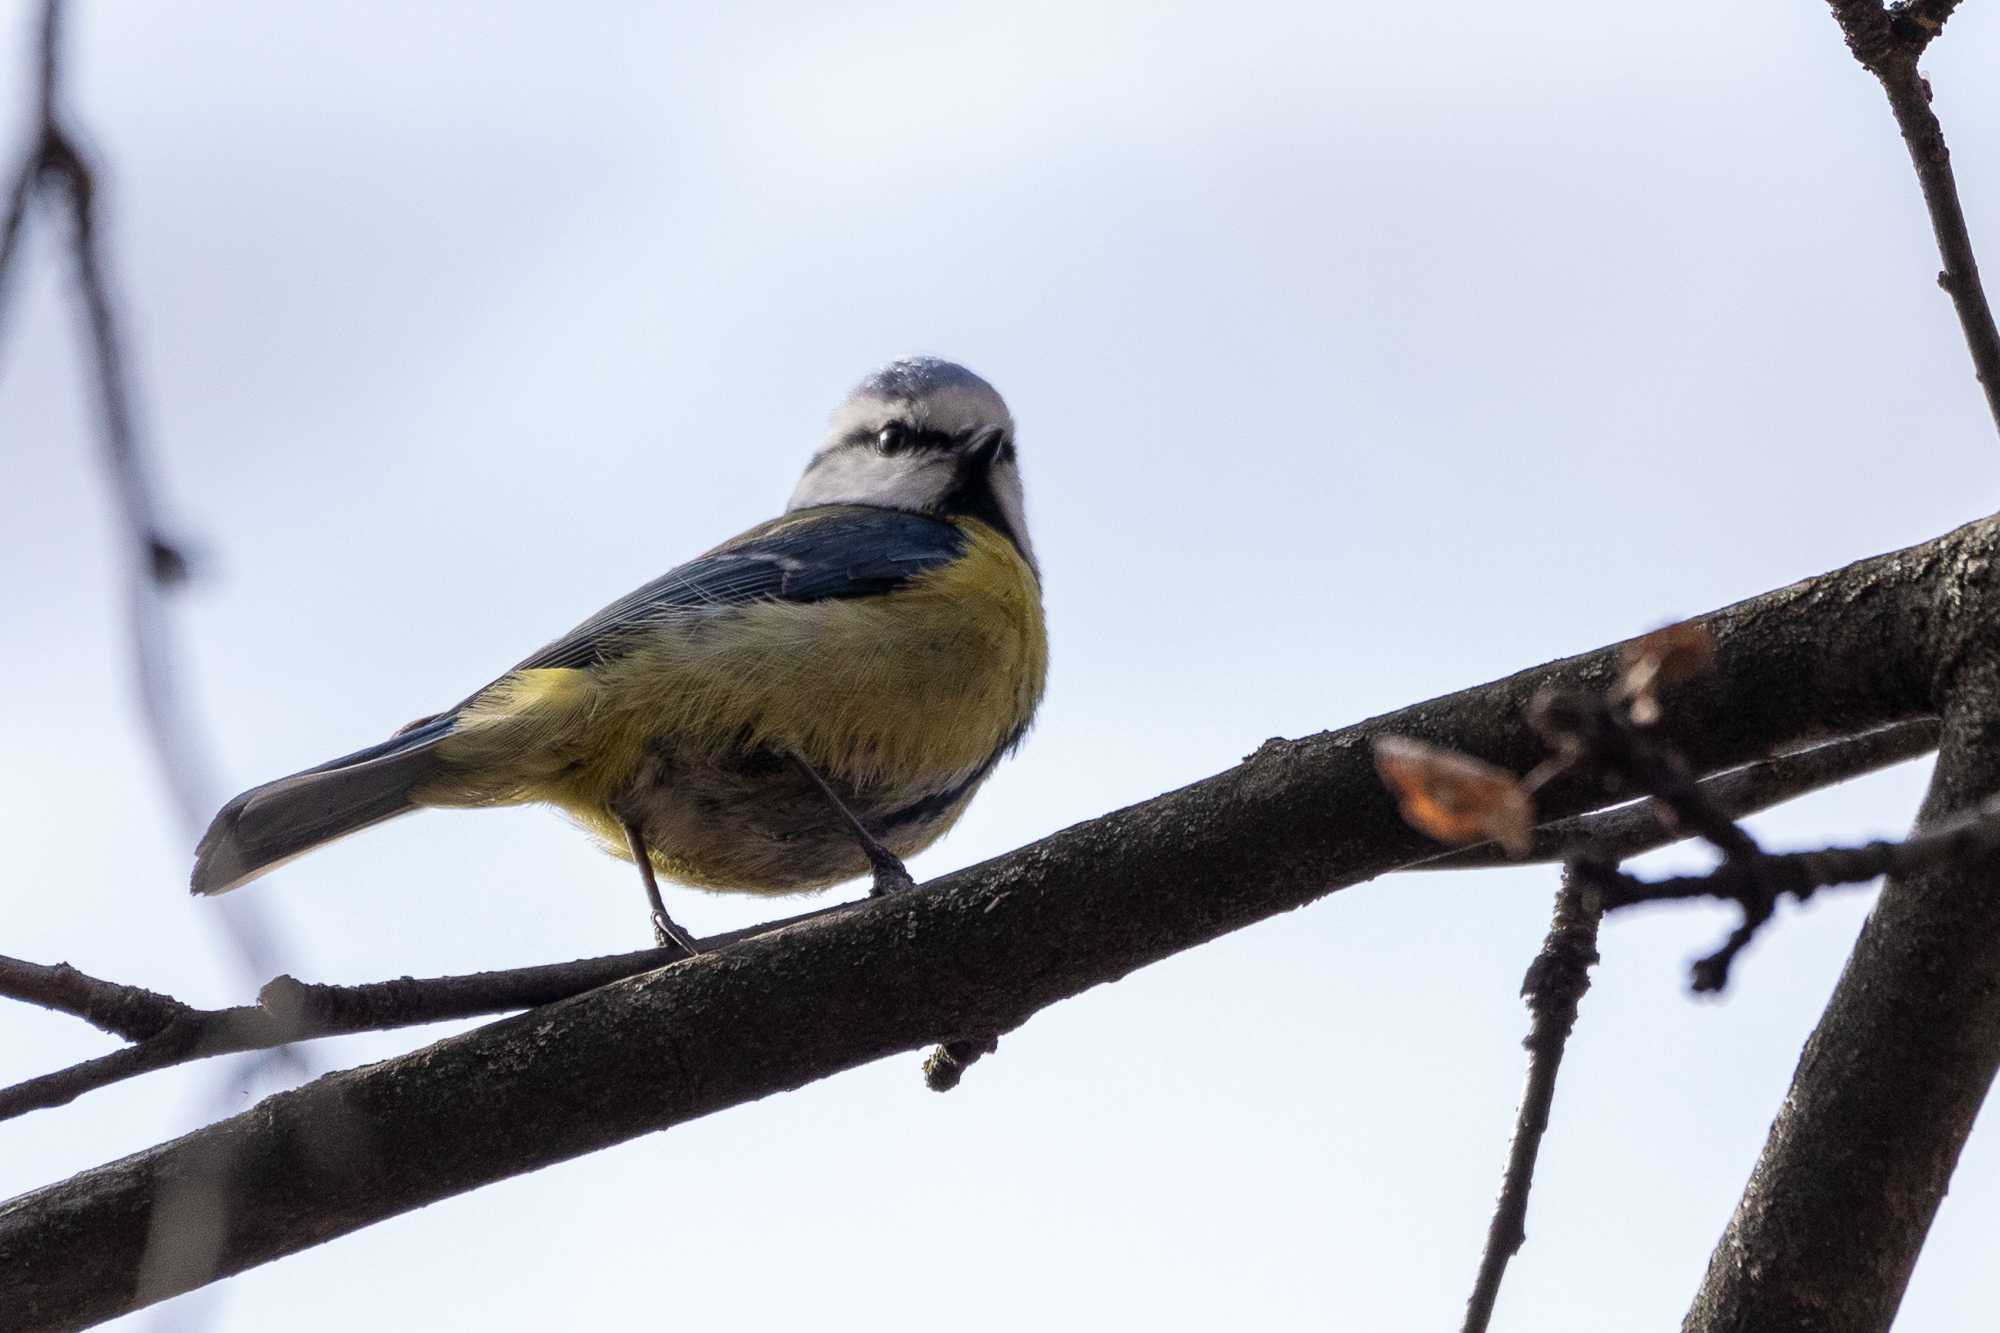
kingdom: Animalia
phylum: Chordata
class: Aves
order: Passeriformes
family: Paridae
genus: Cyanistes
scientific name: Cyanistes caeruleus
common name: Eurasian blue tit
